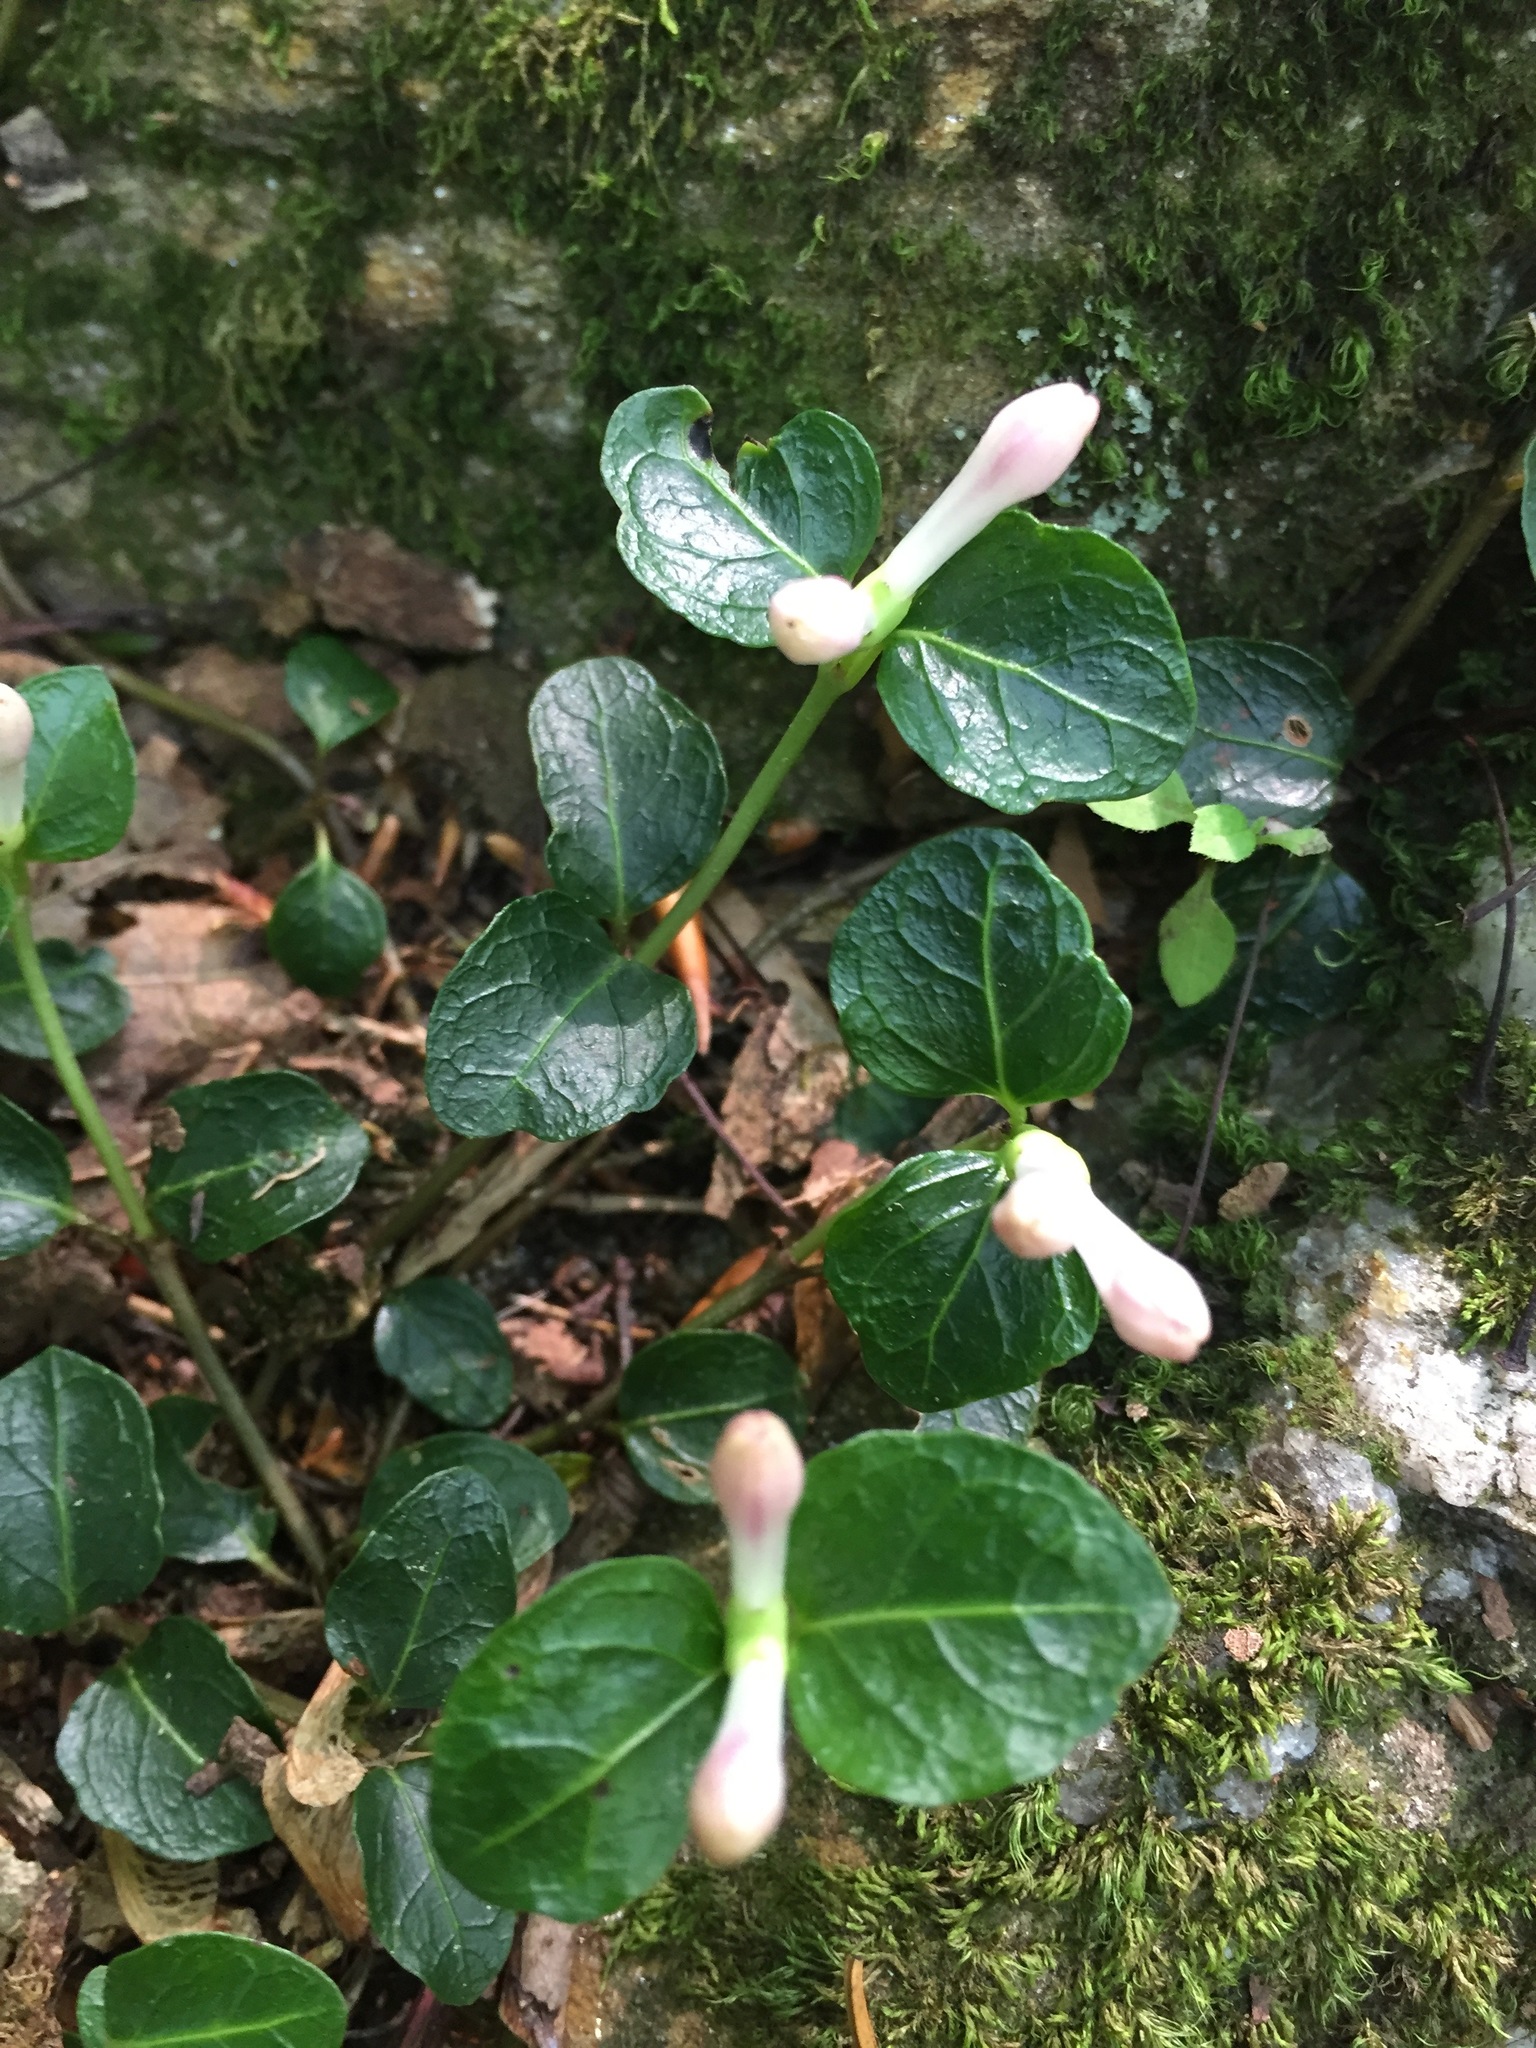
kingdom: Plantae
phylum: Tracheophyta
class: Magnoliopsida
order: Gentianales
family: Rubiaceae
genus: Mitchella
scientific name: Mitchella repens
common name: Partridge-berry
